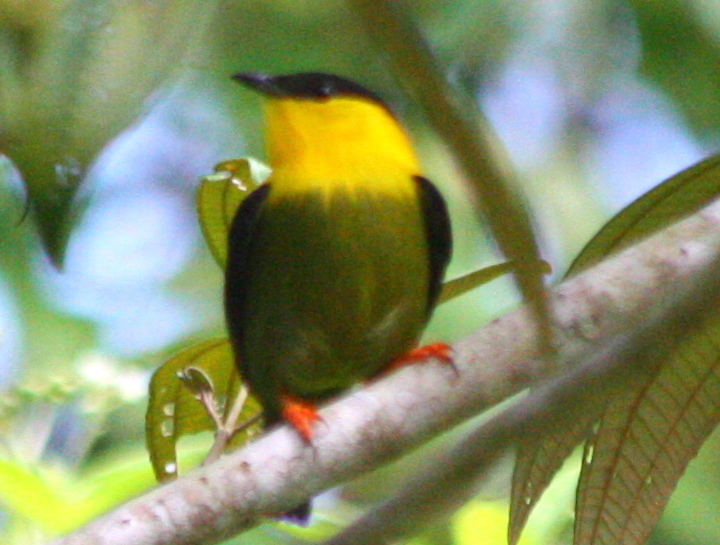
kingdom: Animalia
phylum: Chordata
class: Aves
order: Passeriformes
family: Pipridae
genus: Manacus
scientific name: Manacus vitellinus
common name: Golden-collared manakin
